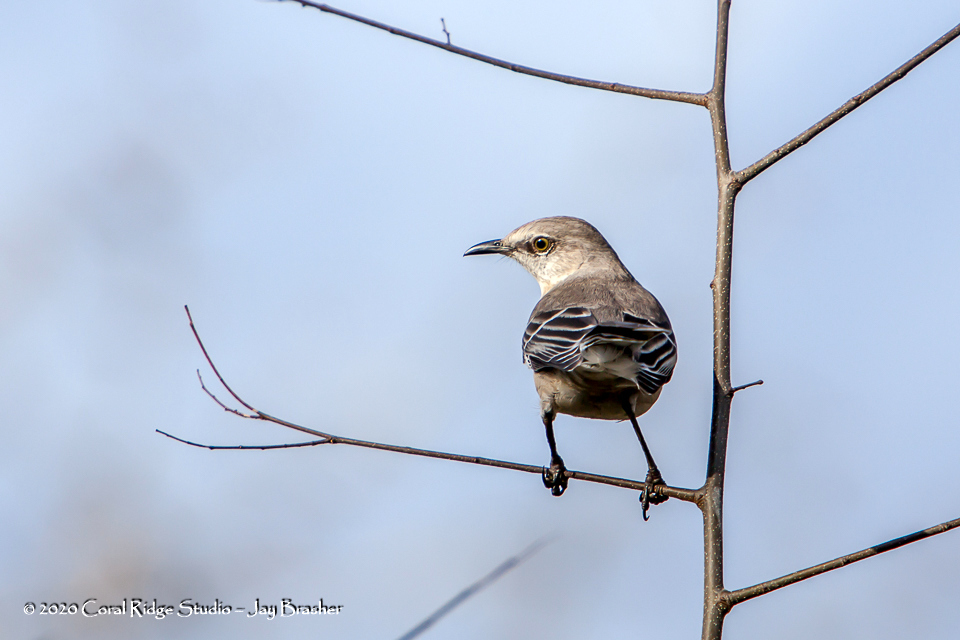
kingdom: Animalia
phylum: Chordata
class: Aves
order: Passeriformes
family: Mimidae
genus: Mimus
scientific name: Mimus polyglottos
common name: Northern mockingbird
